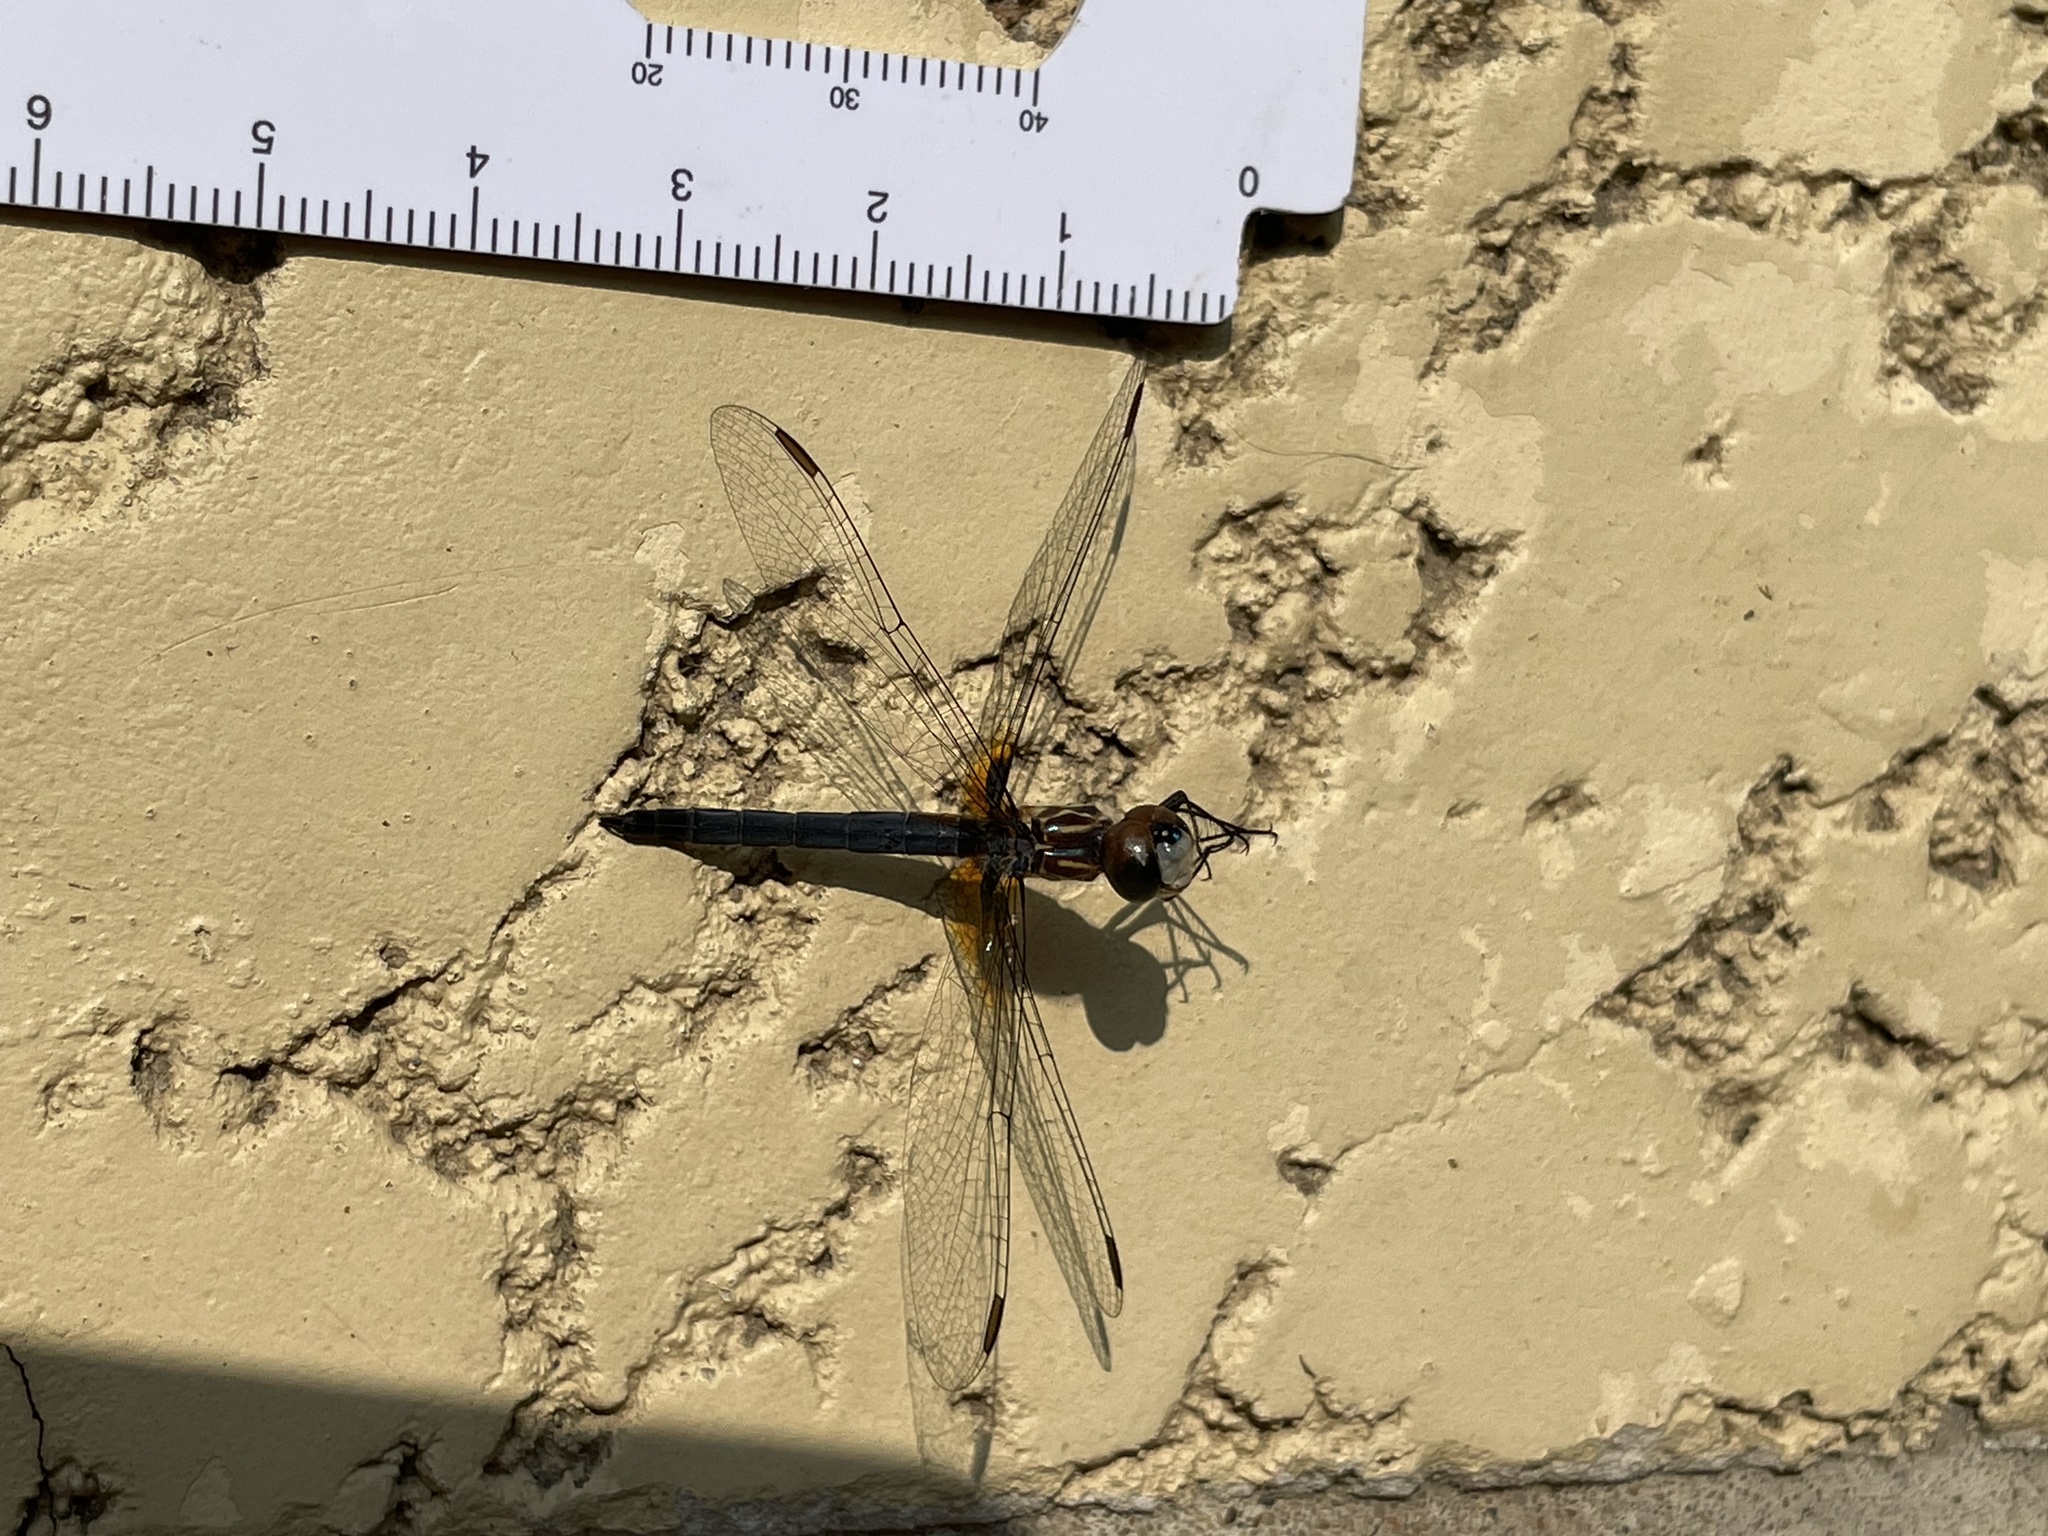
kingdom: Animalia
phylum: Arthropoda
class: Insecta
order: Odonata
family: Libellulidae
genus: Pachydiplax
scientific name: Pachydiplax longipennis
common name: Blue dasher
